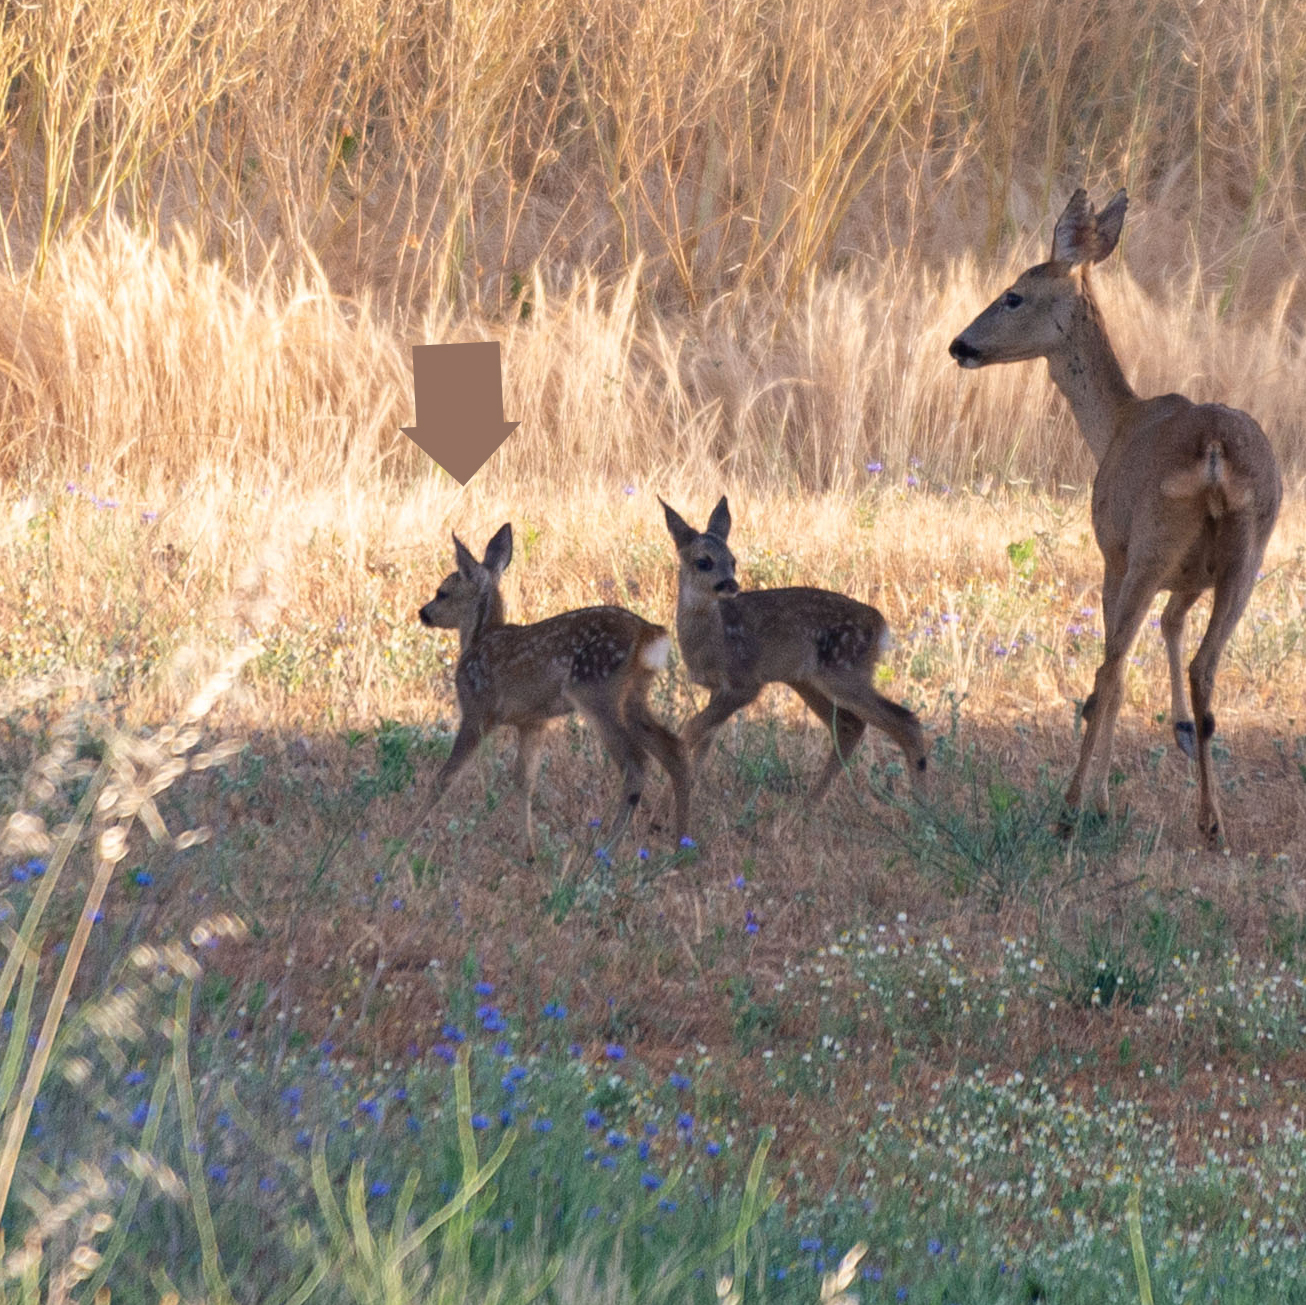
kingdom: Animalia
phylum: Chordata
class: Mammalia
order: Artiodactyla
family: Cervidae
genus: Capreolus
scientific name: Capreolus capreolus
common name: Western roe deer
